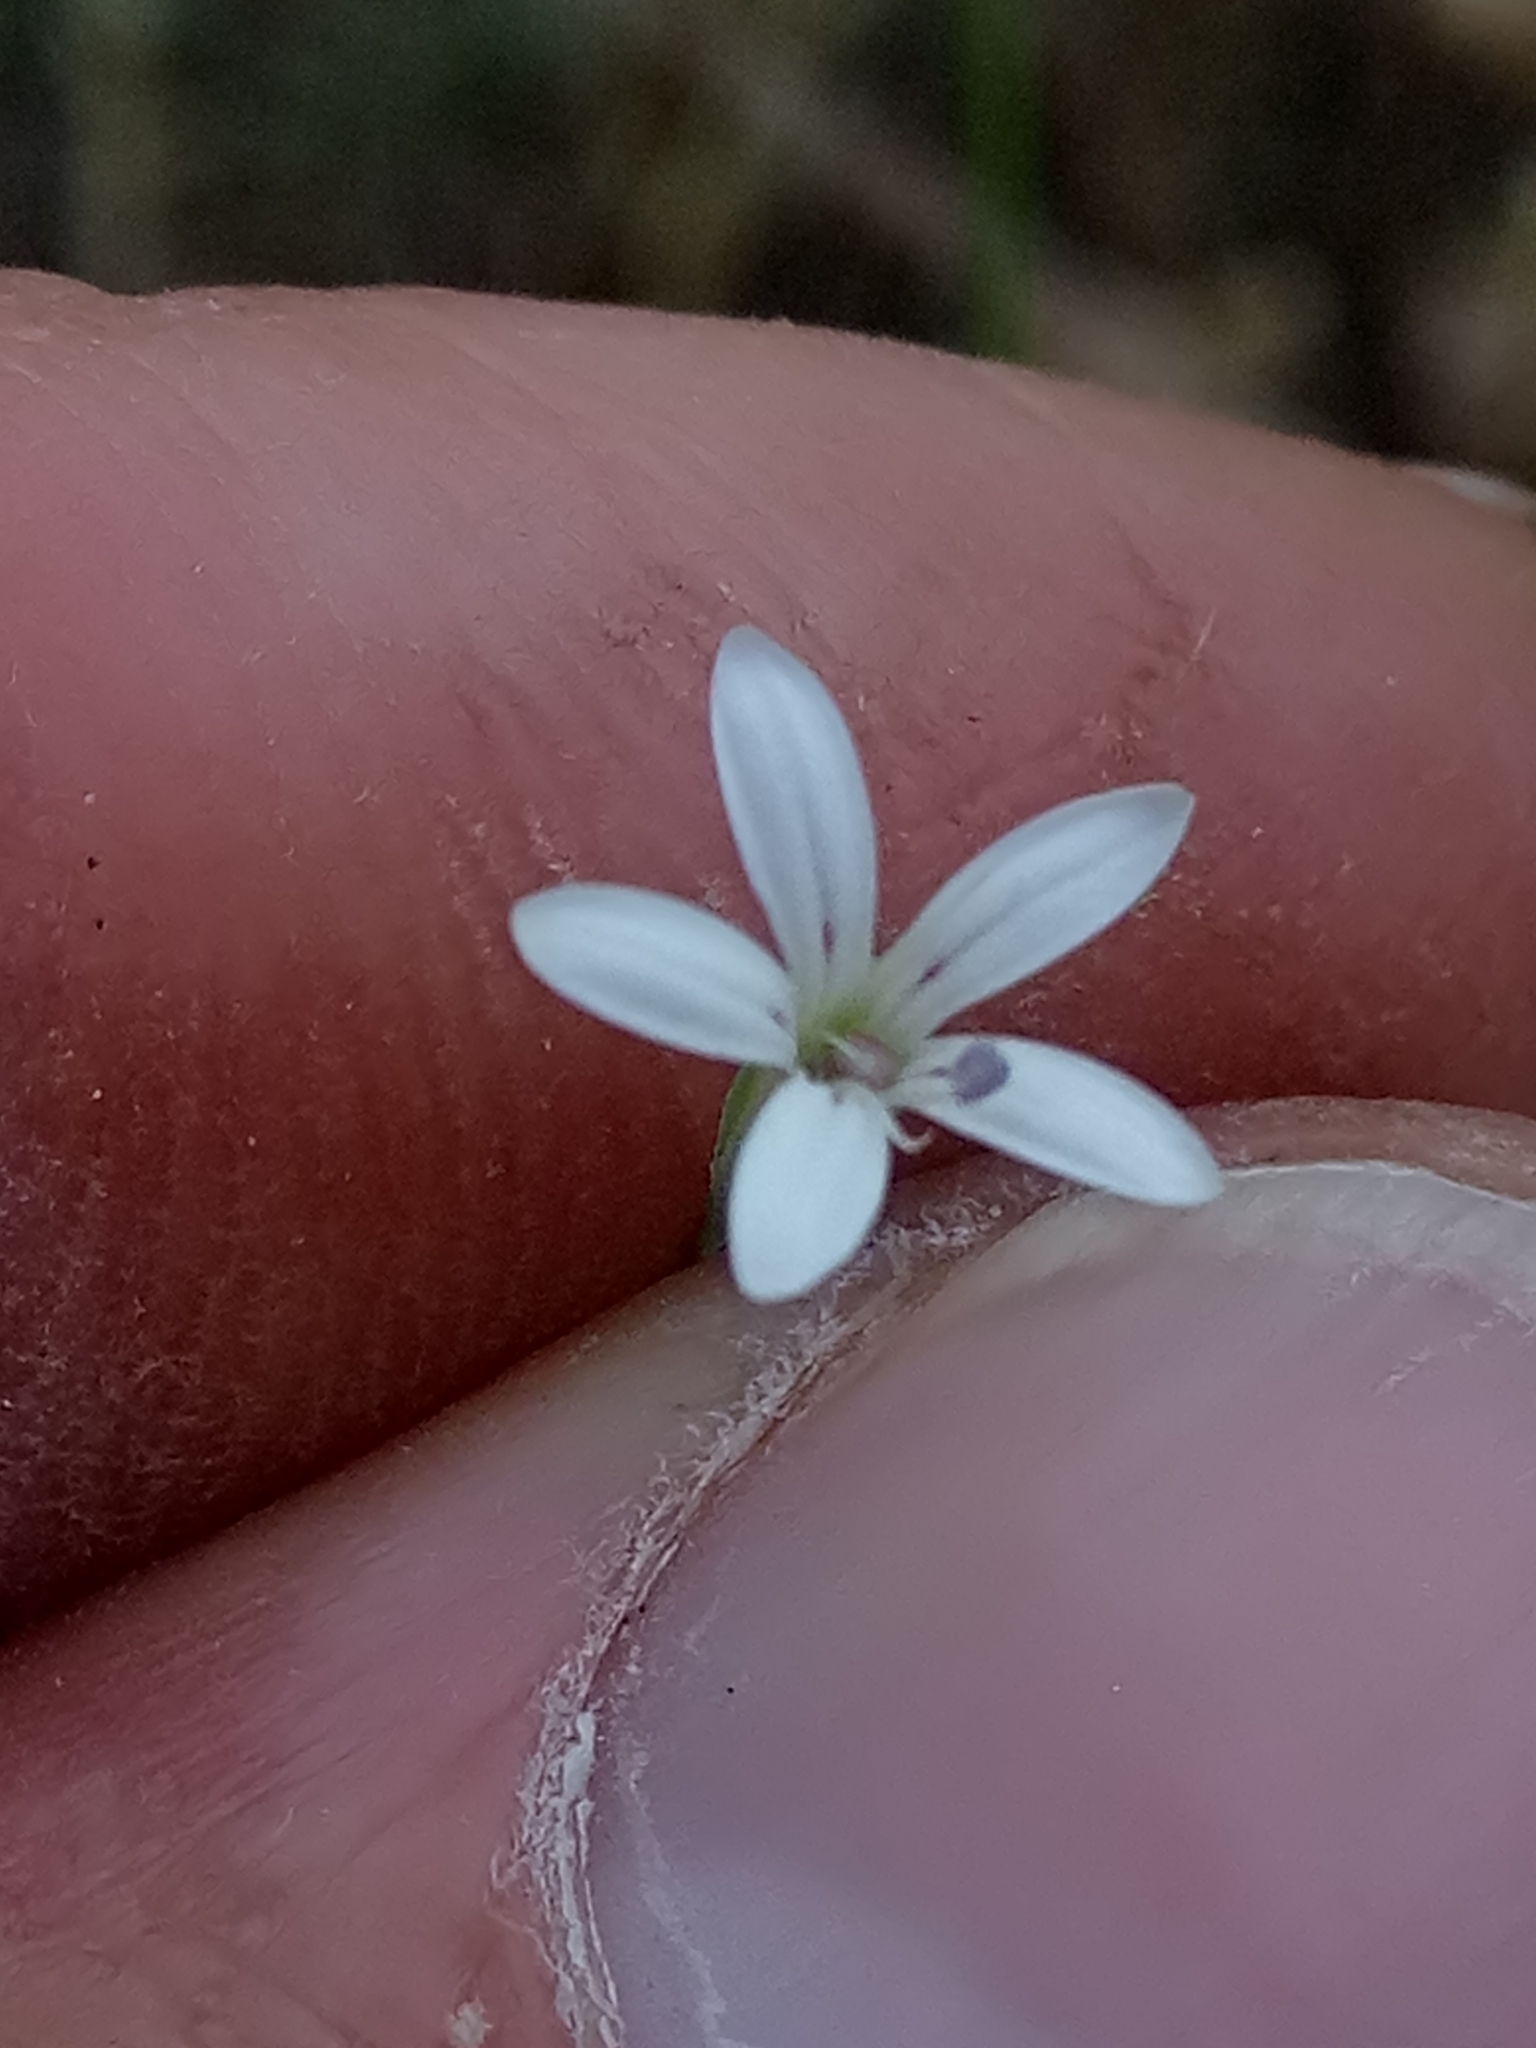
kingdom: Plantae
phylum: Tracheophyta
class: Magnoliopsida
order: Caryophyllales
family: Caryophyllaceae
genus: Dianthus
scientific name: Dianthus illyricus
